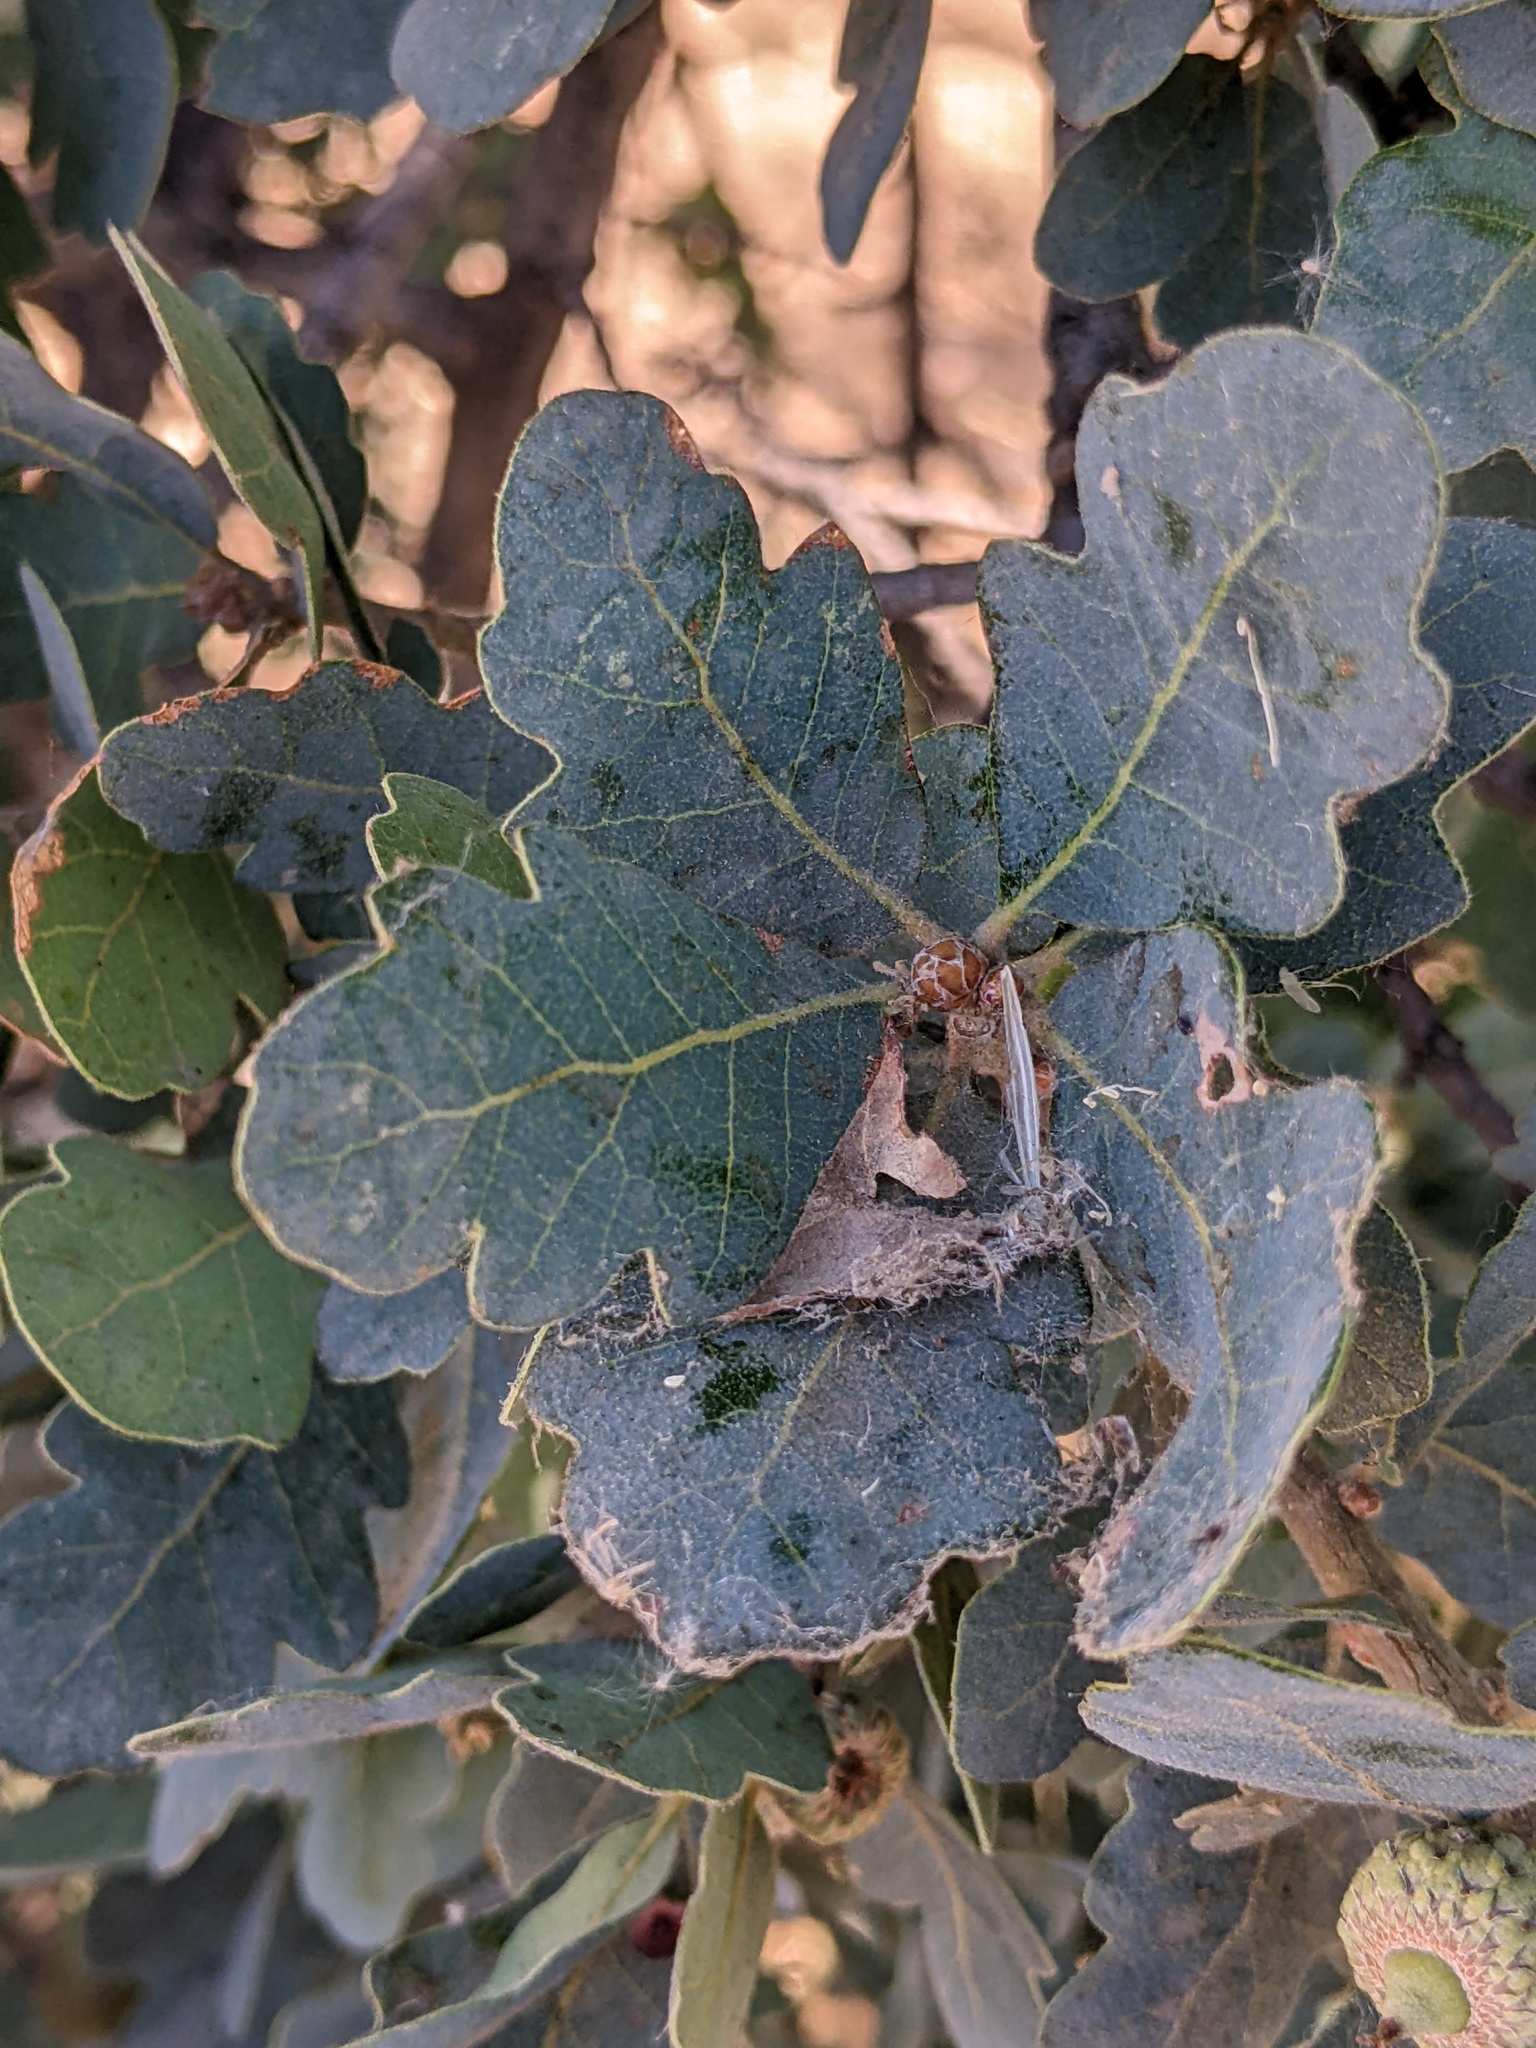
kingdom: Plantae
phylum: Tracheophyta
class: Magnoliopsida
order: Fagales
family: Fagaceae
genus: Quercus
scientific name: Quercus douglasii
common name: Blue oak
